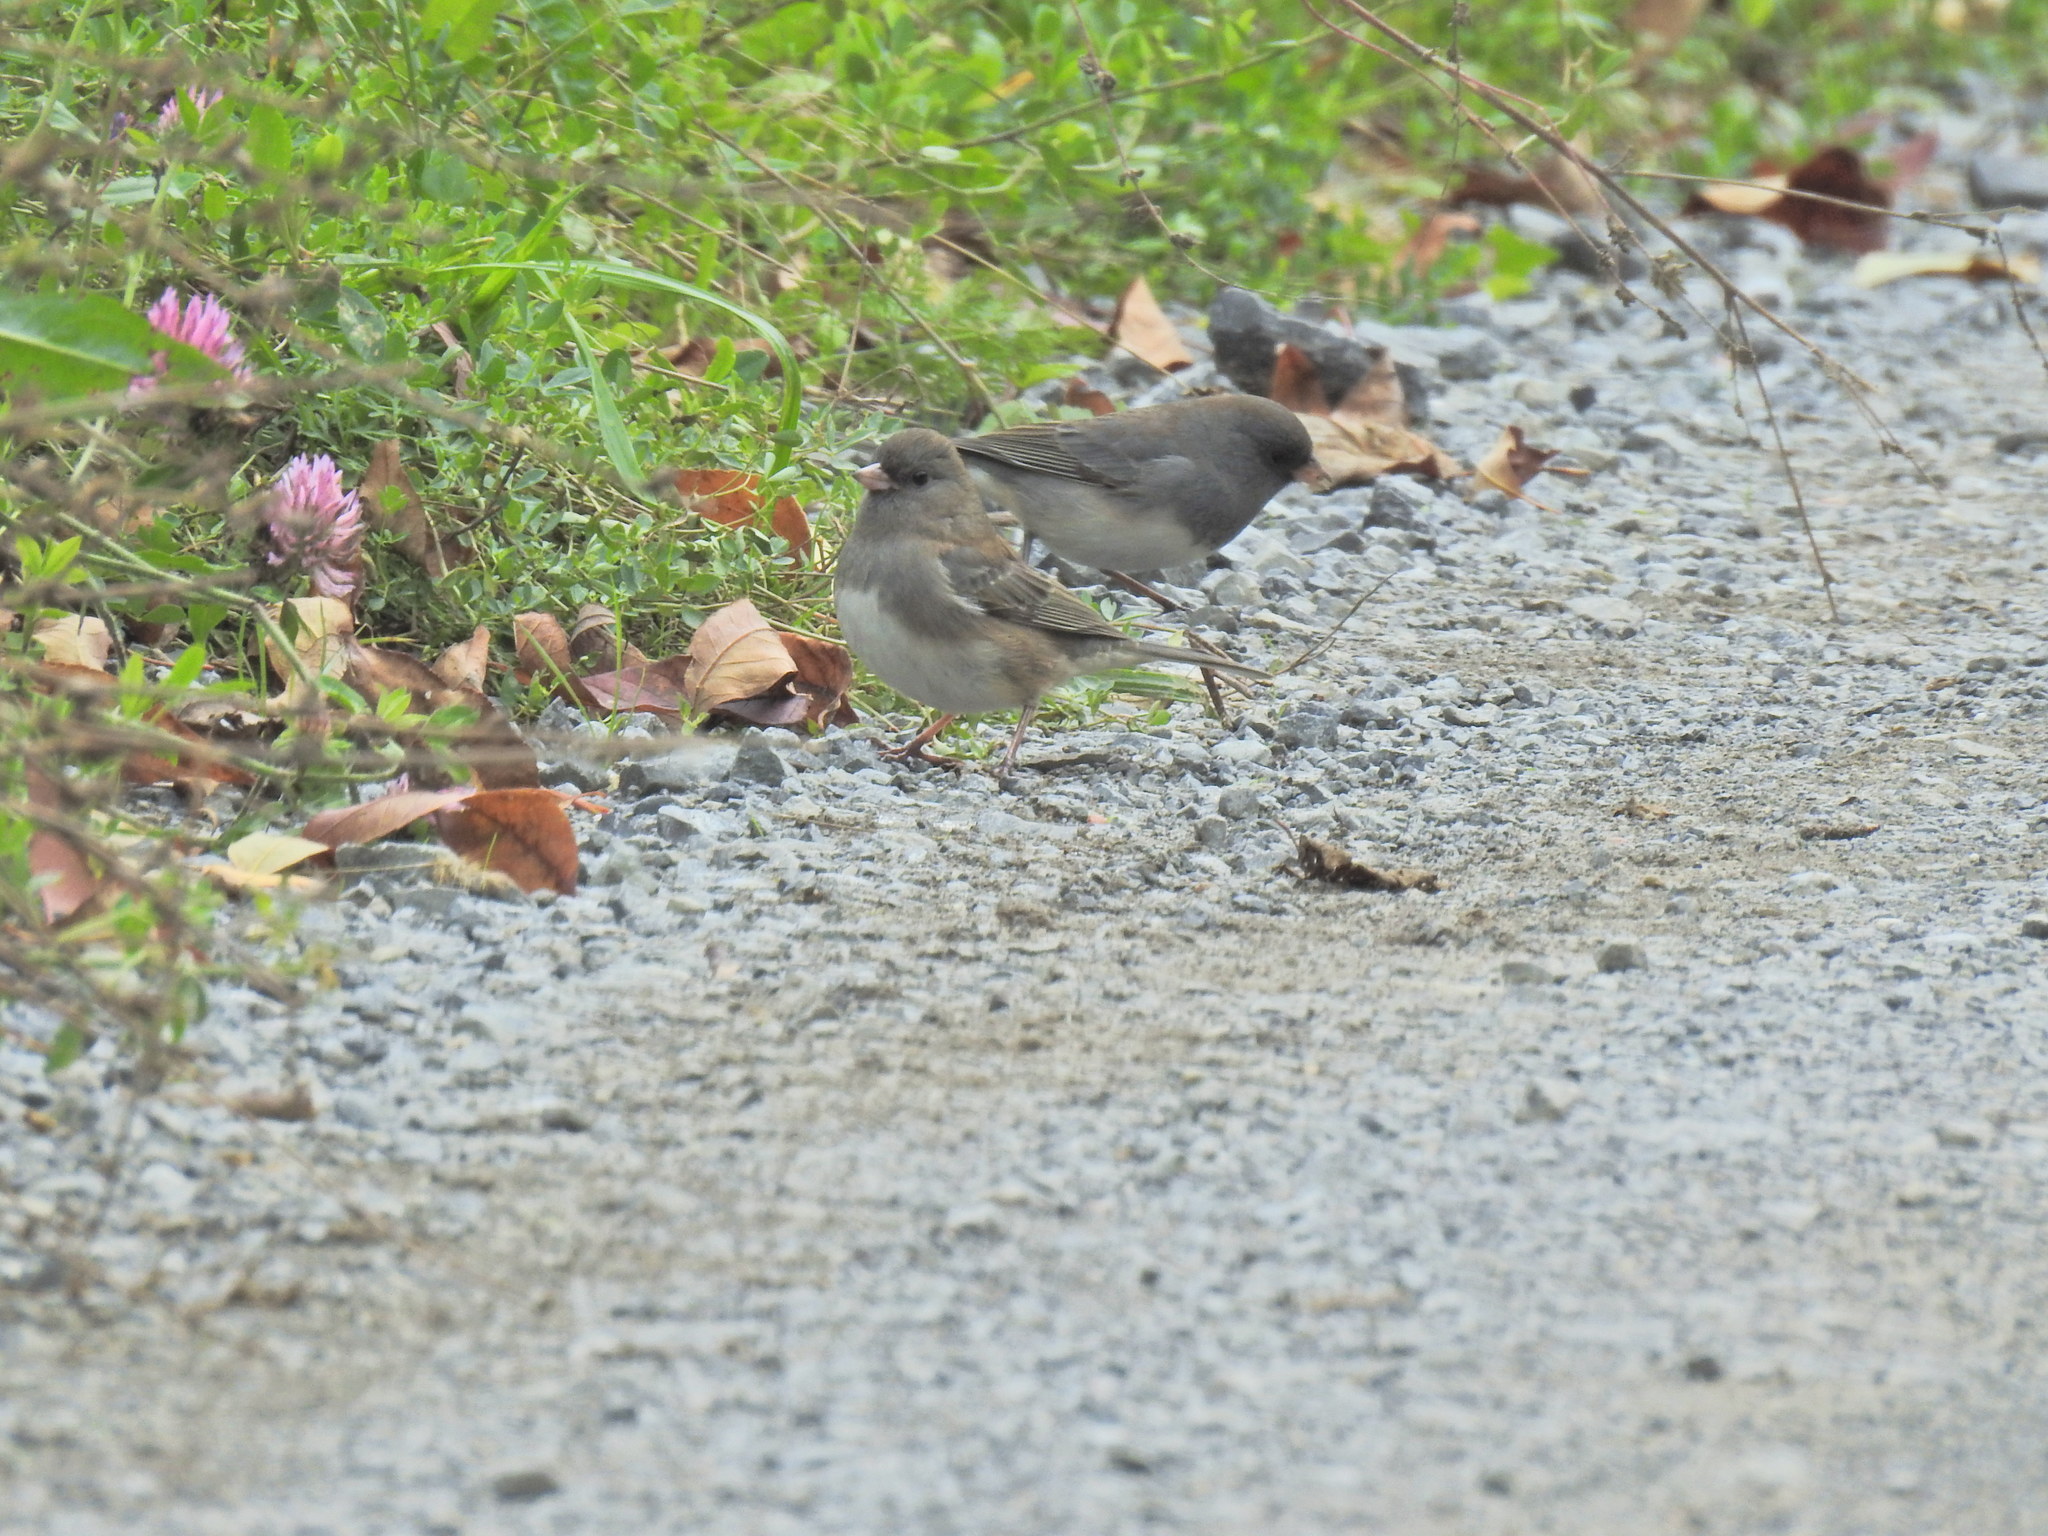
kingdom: Animalia
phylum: Chordata
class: Aves
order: Passeriformes
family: Passerellidae
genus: Junco
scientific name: Junco hyemalis
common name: Dark-eyed junco
